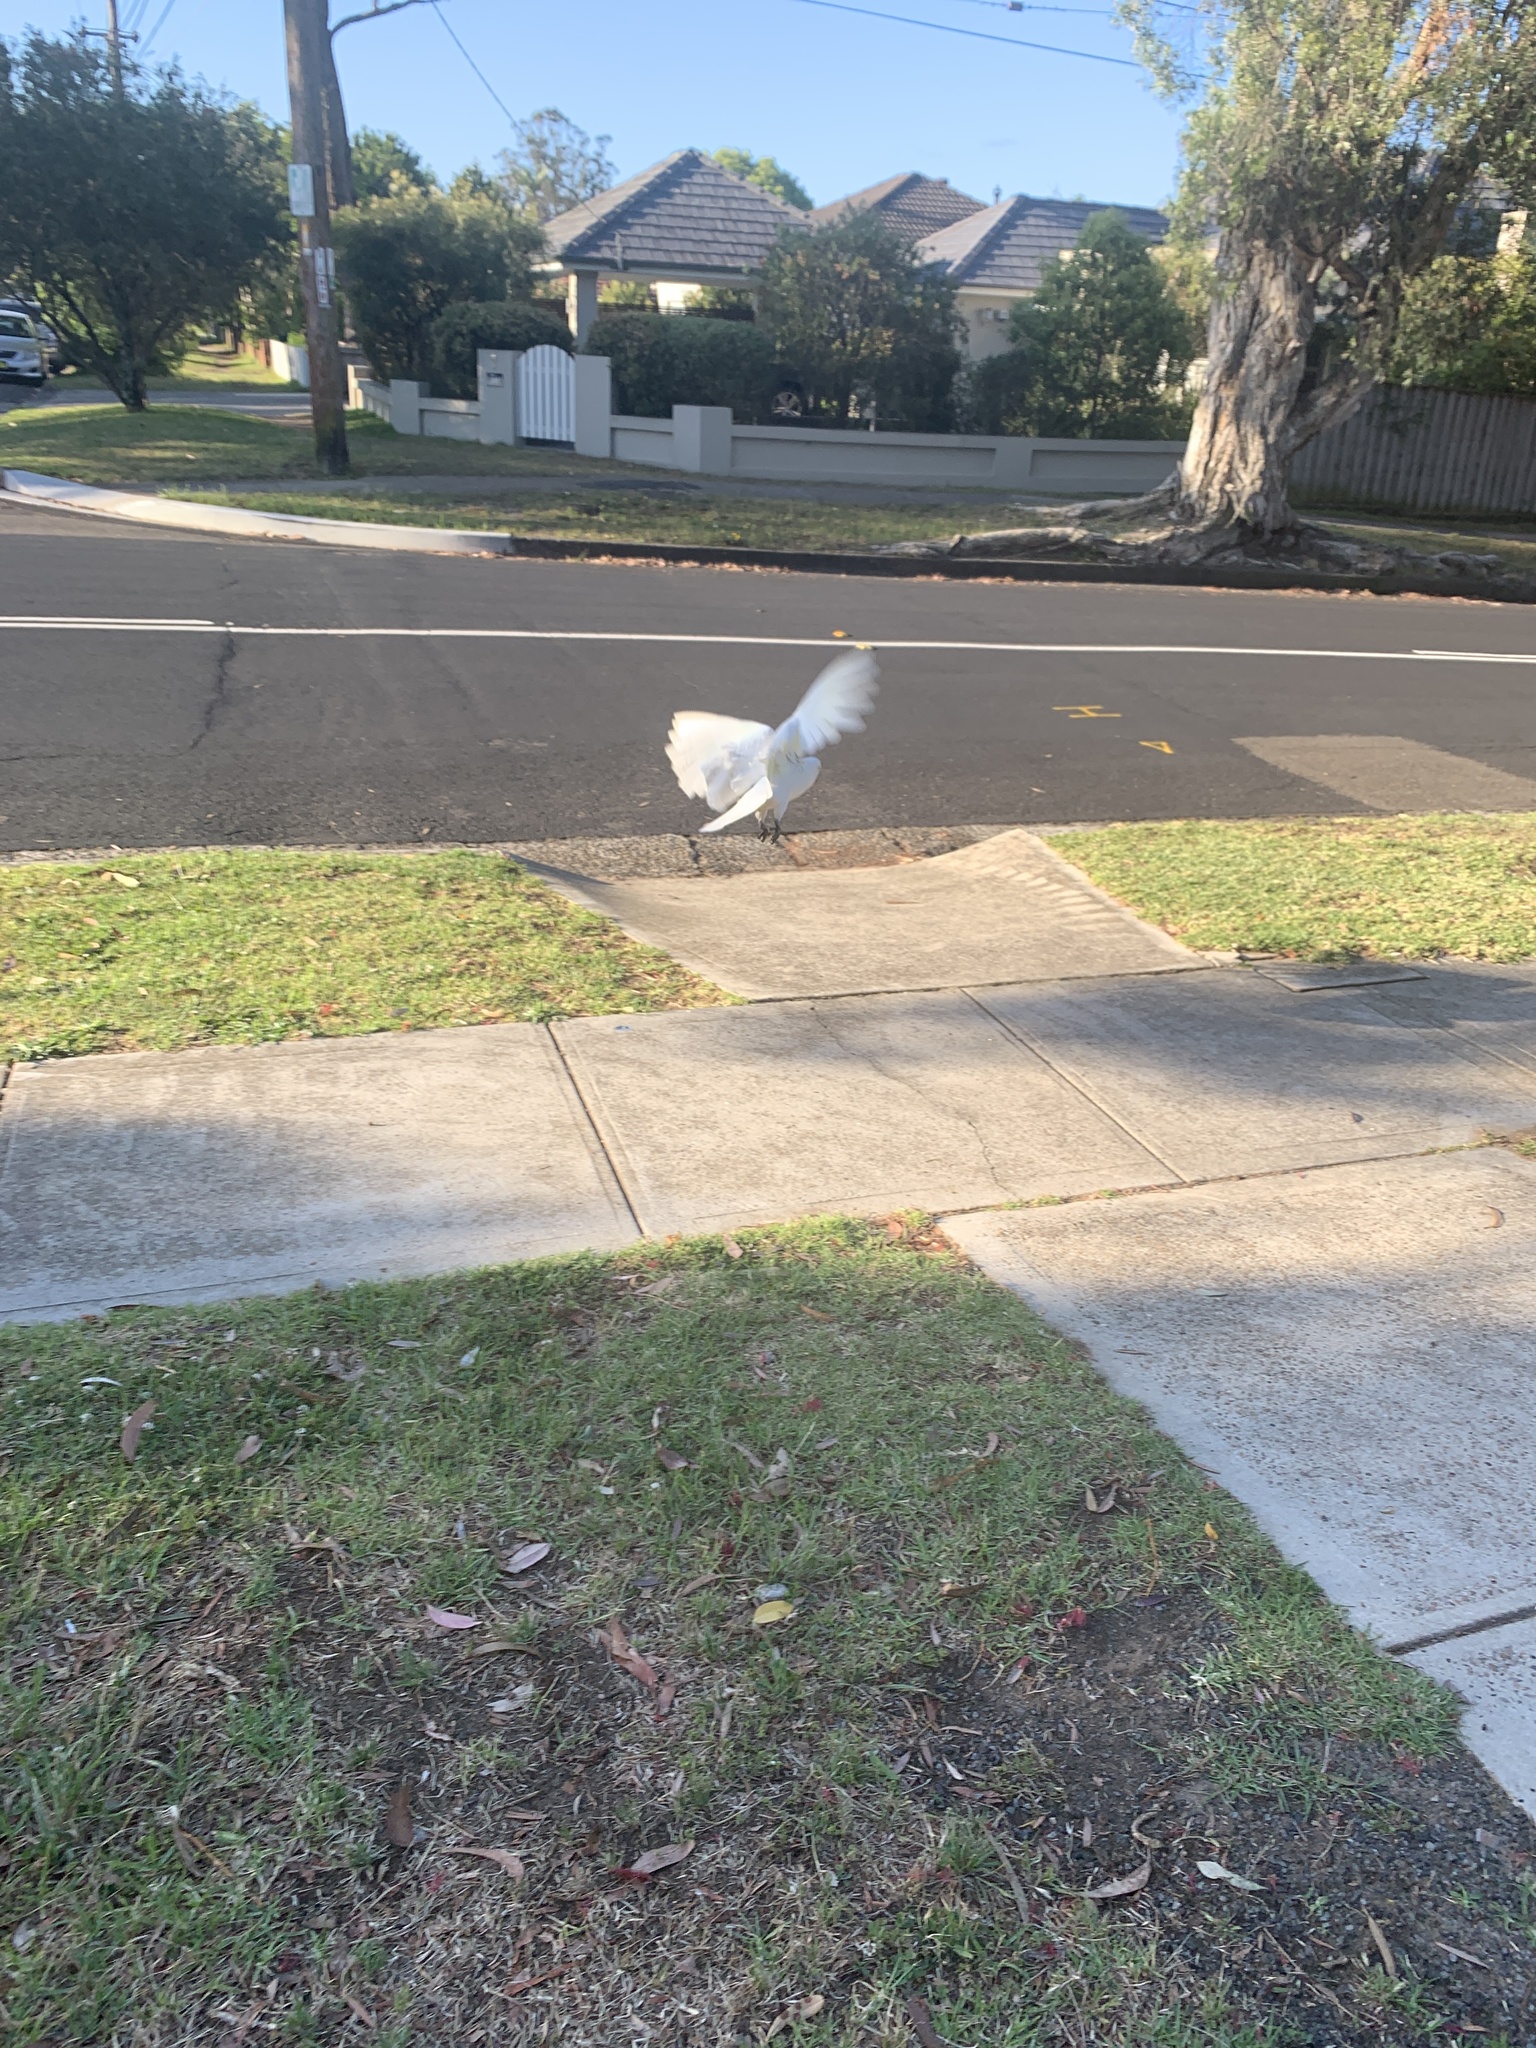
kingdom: Animalia
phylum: Chordata
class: Aves
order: Psittaciformes
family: Psittacidae
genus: Cacatua
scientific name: Cacatua galerita
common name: Sulphur-crested cockatoo
